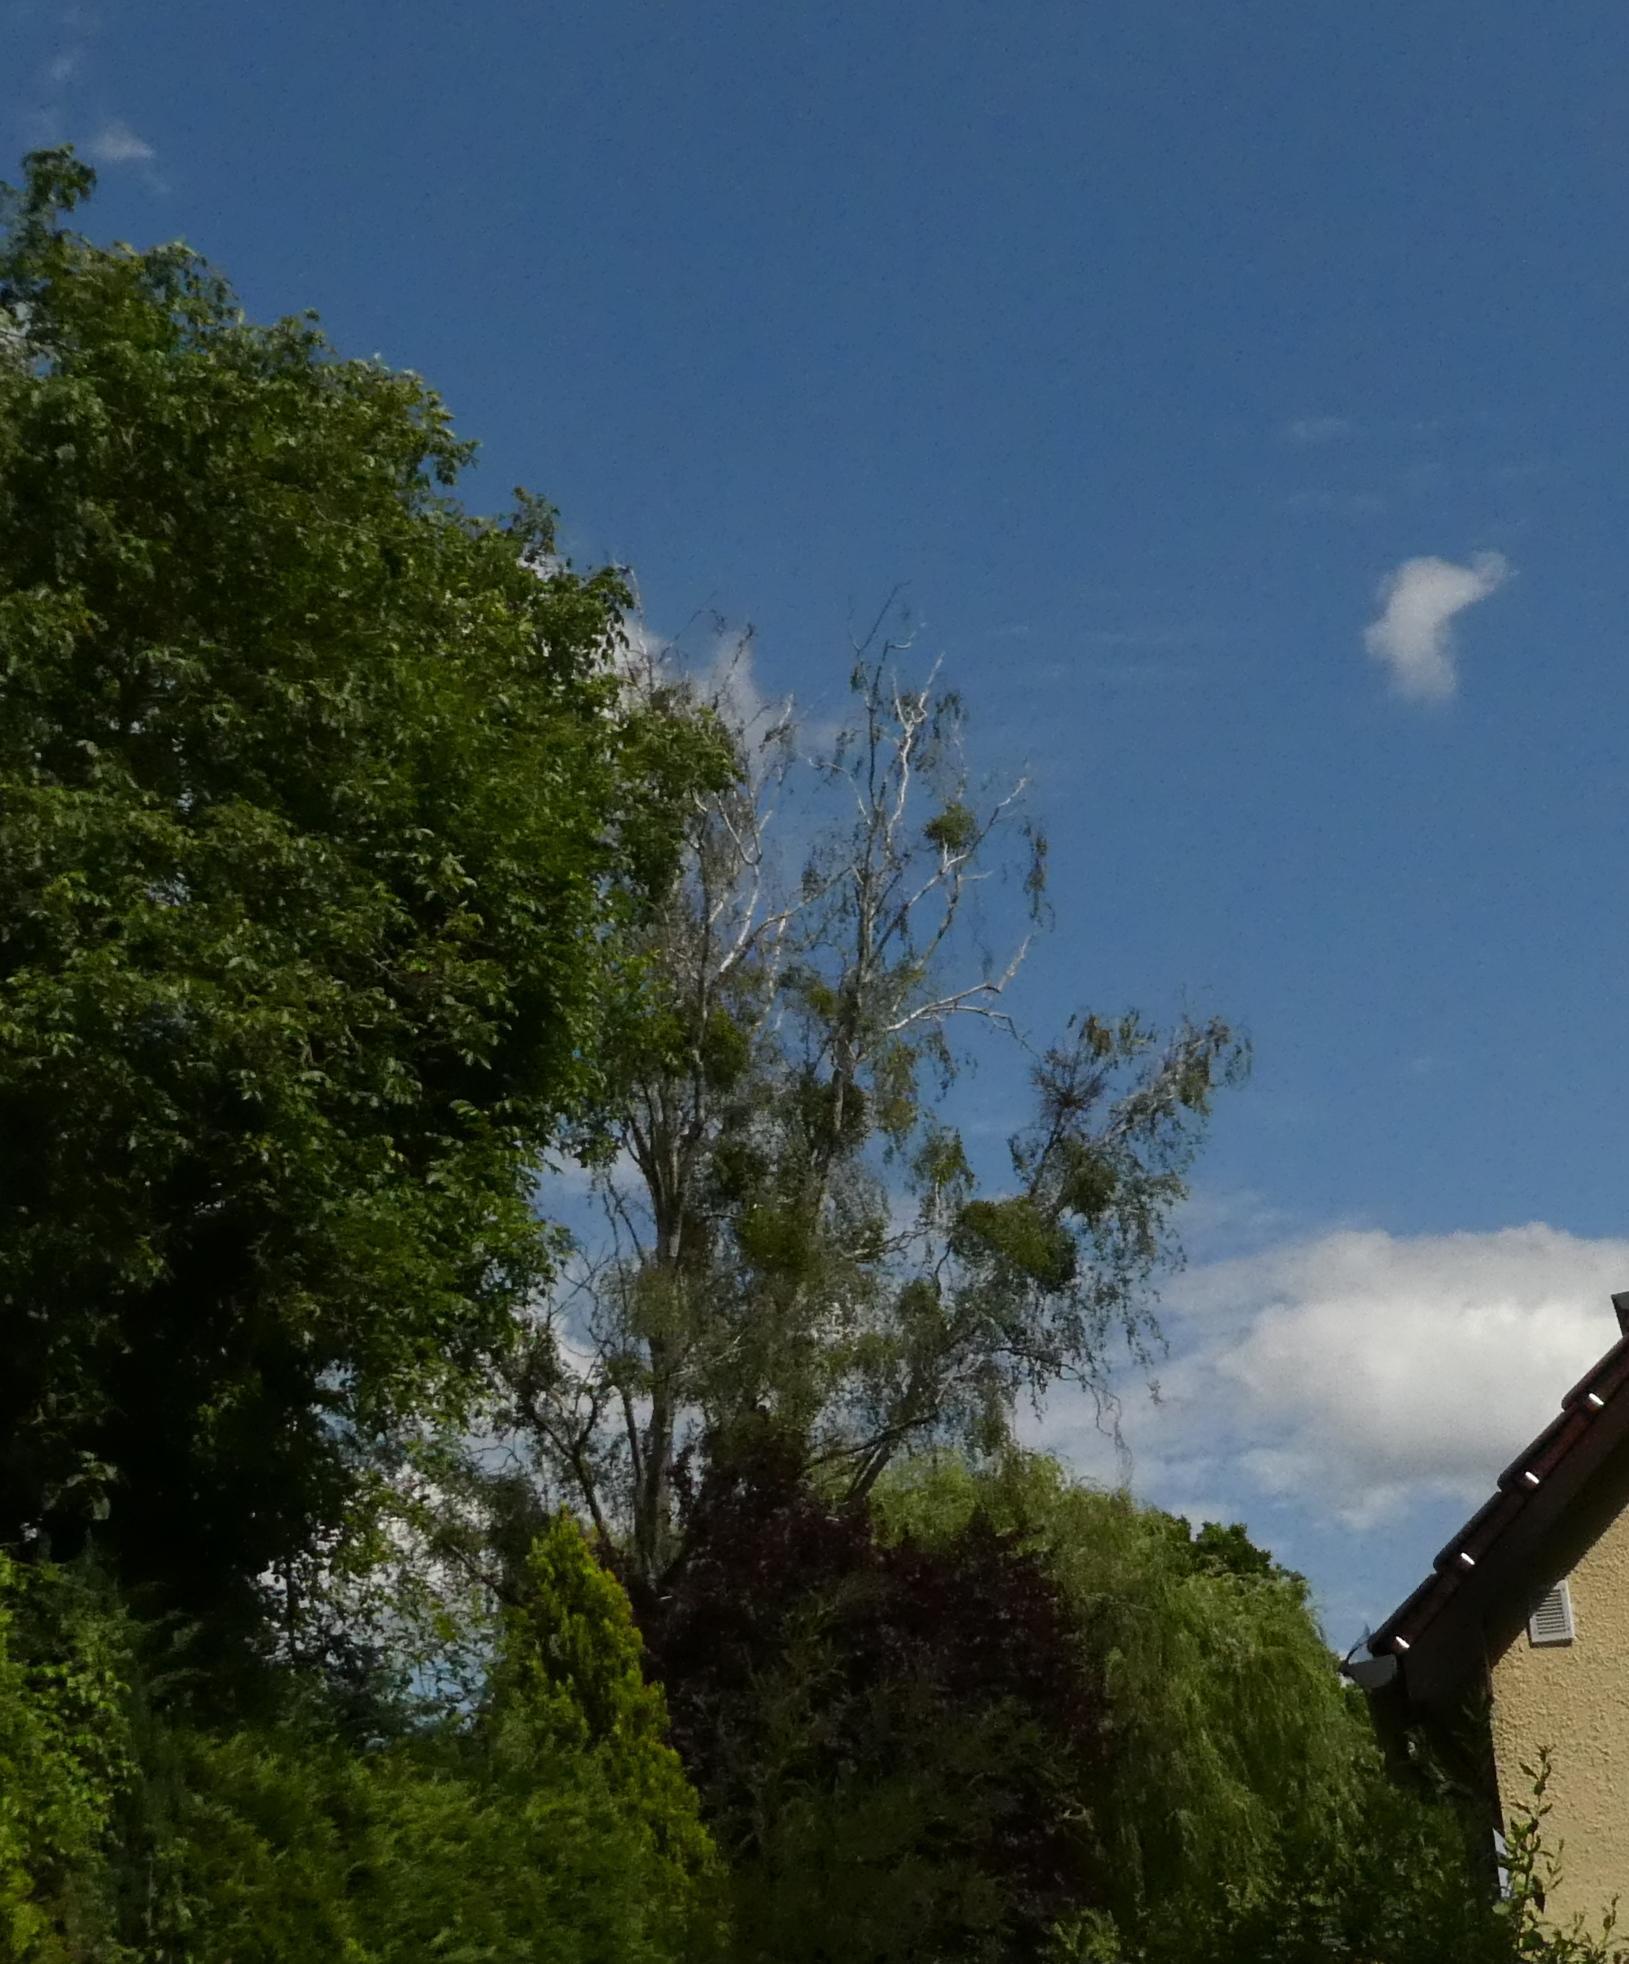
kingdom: Plantae
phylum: Tracheophyta
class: Magnoliopsida
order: Santalales
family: Viscaceae
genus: Viscum
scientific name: Viscum album
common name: Mistletoe
